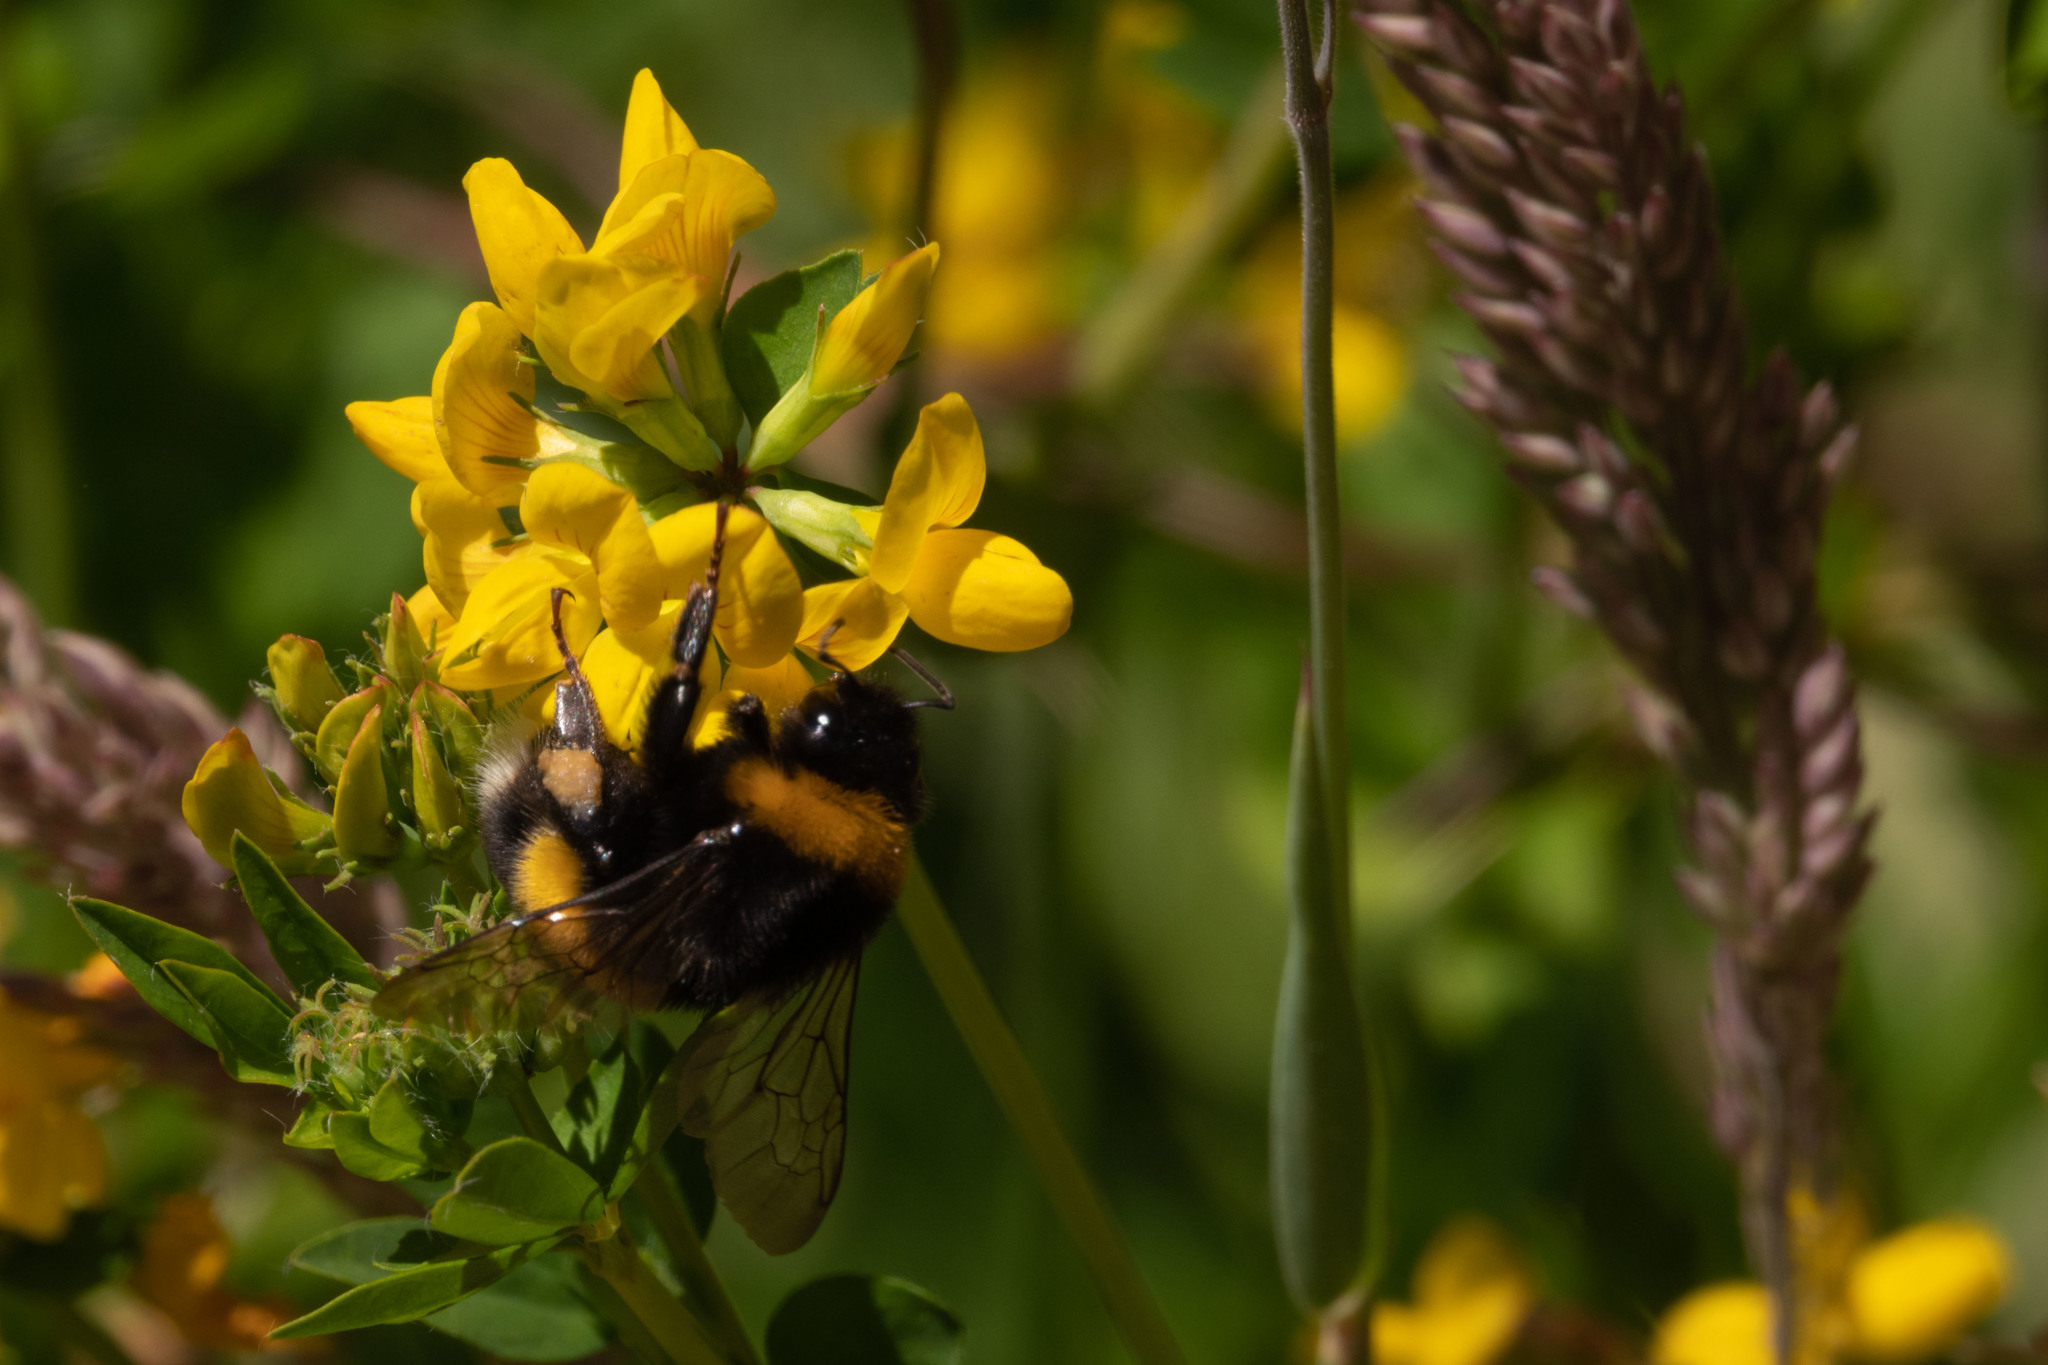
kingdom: Animalia
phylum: Arthropoda
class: Insecta
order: Hymenoptera
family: Apidae
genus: Bombus
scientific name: Bombus terrestris
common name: Buff-tailed bumblebee
